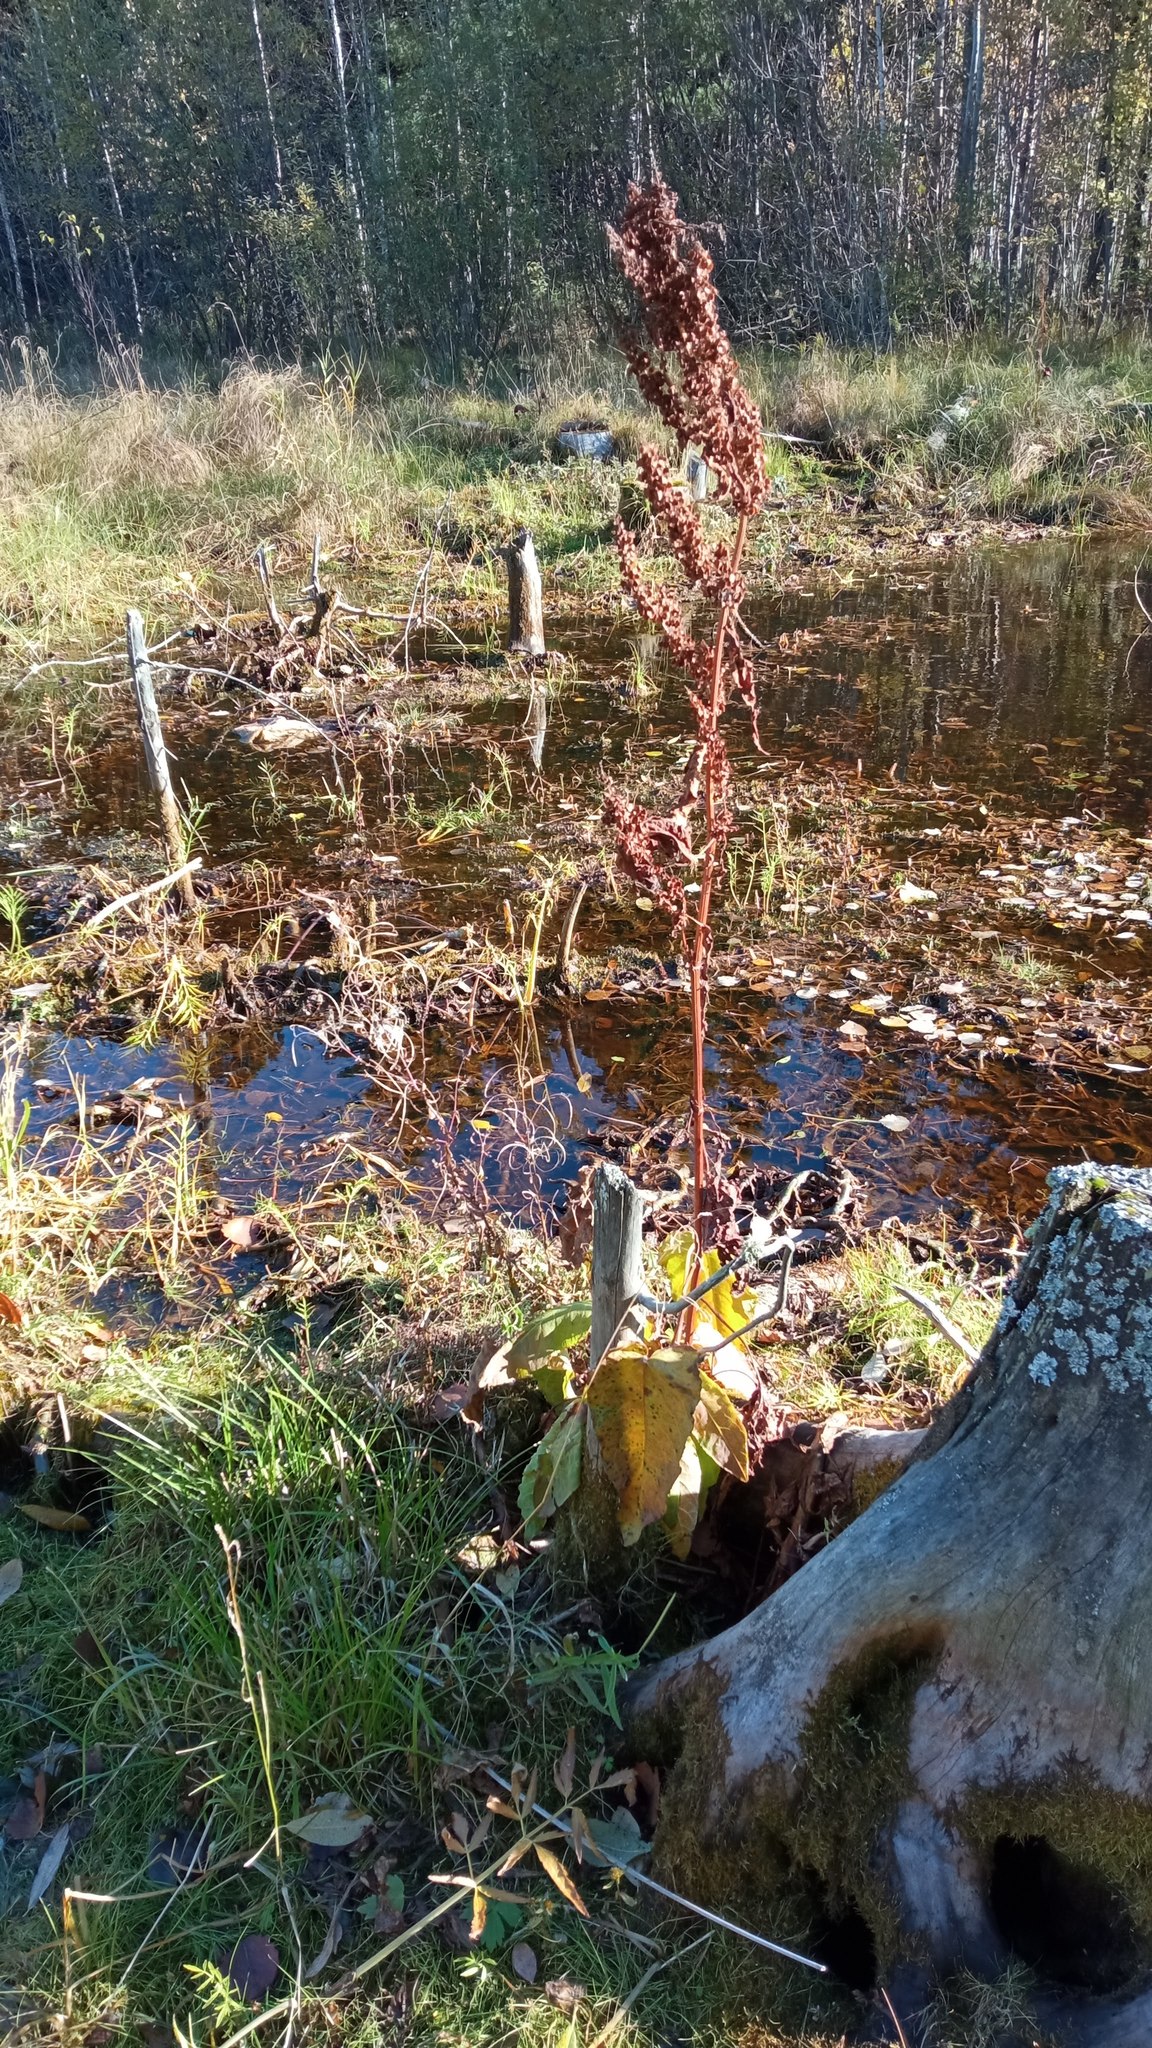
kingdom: Plantae
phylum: Tracheophyta
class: Magnoliopsida
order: Caryophyllales
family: Polygonaceae
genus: Rumex
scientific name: Rumex aquaticus
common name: Scottish dock
